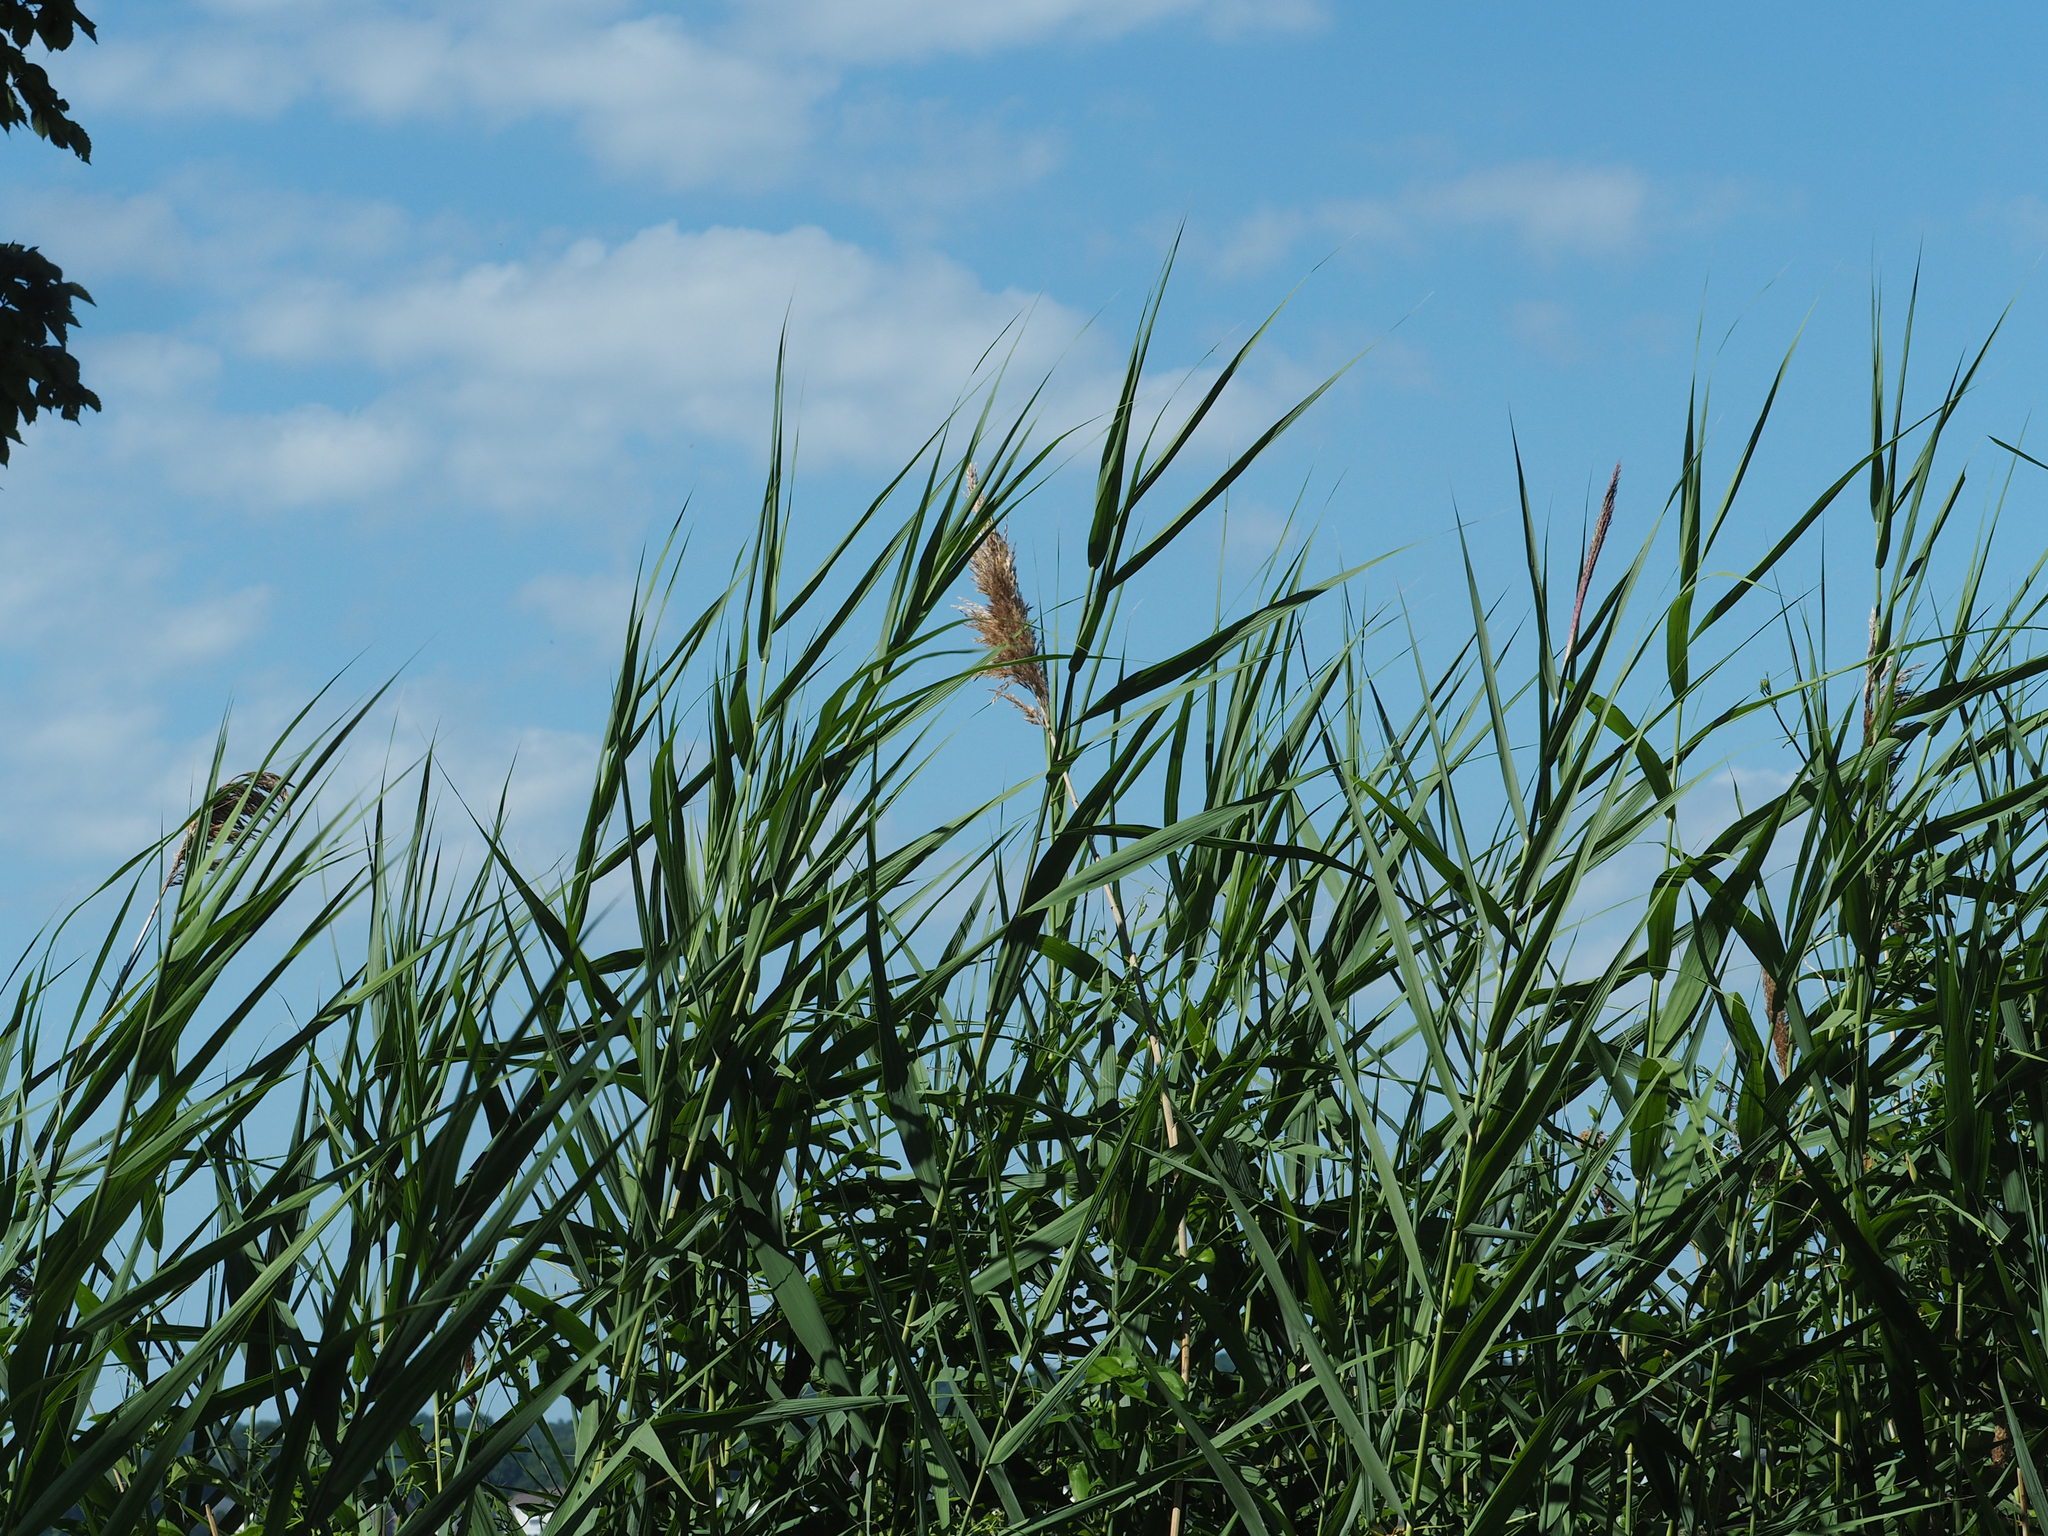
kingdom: Plantae
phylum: Tracheophyta
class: Liliopsida
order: Poales
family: Poaceae
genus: Phragmites
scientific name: Phragmites australis
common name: Common reed
